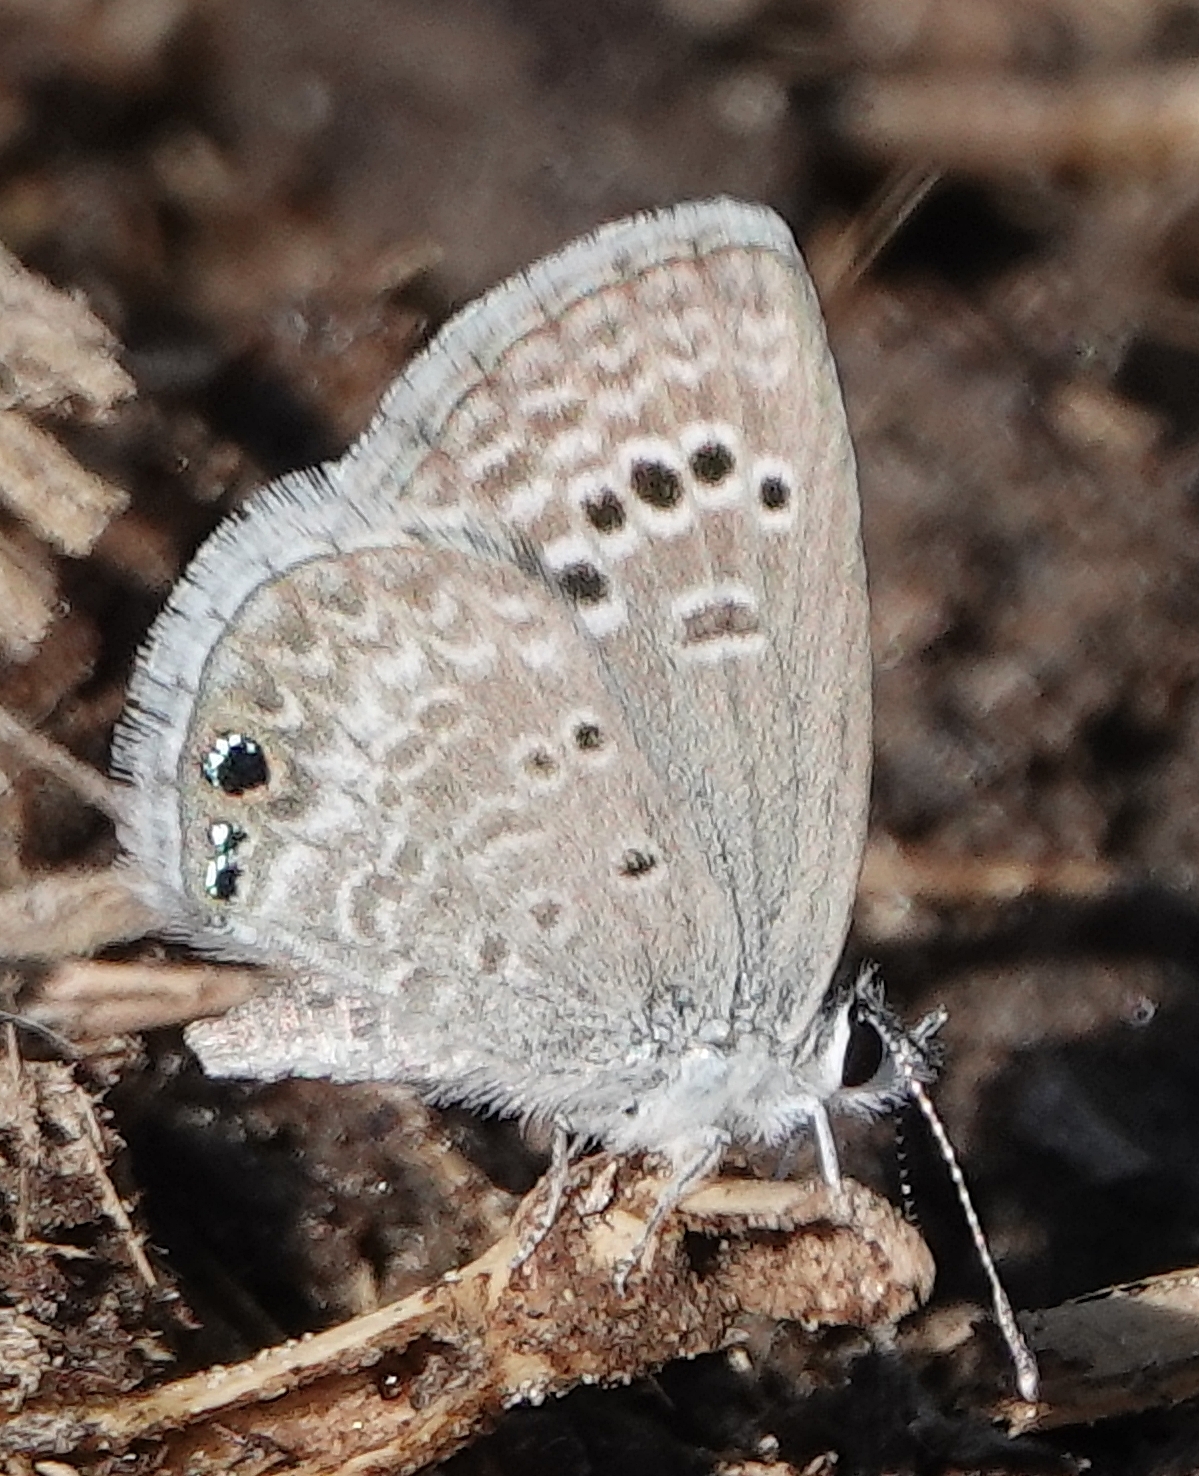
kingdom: Animalia
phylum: Arthropoda
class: Insecta
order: Lepidoptera
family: Lycaenidae
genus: Echinargus
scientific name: Echinargus isola
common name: Reakirt's blue
